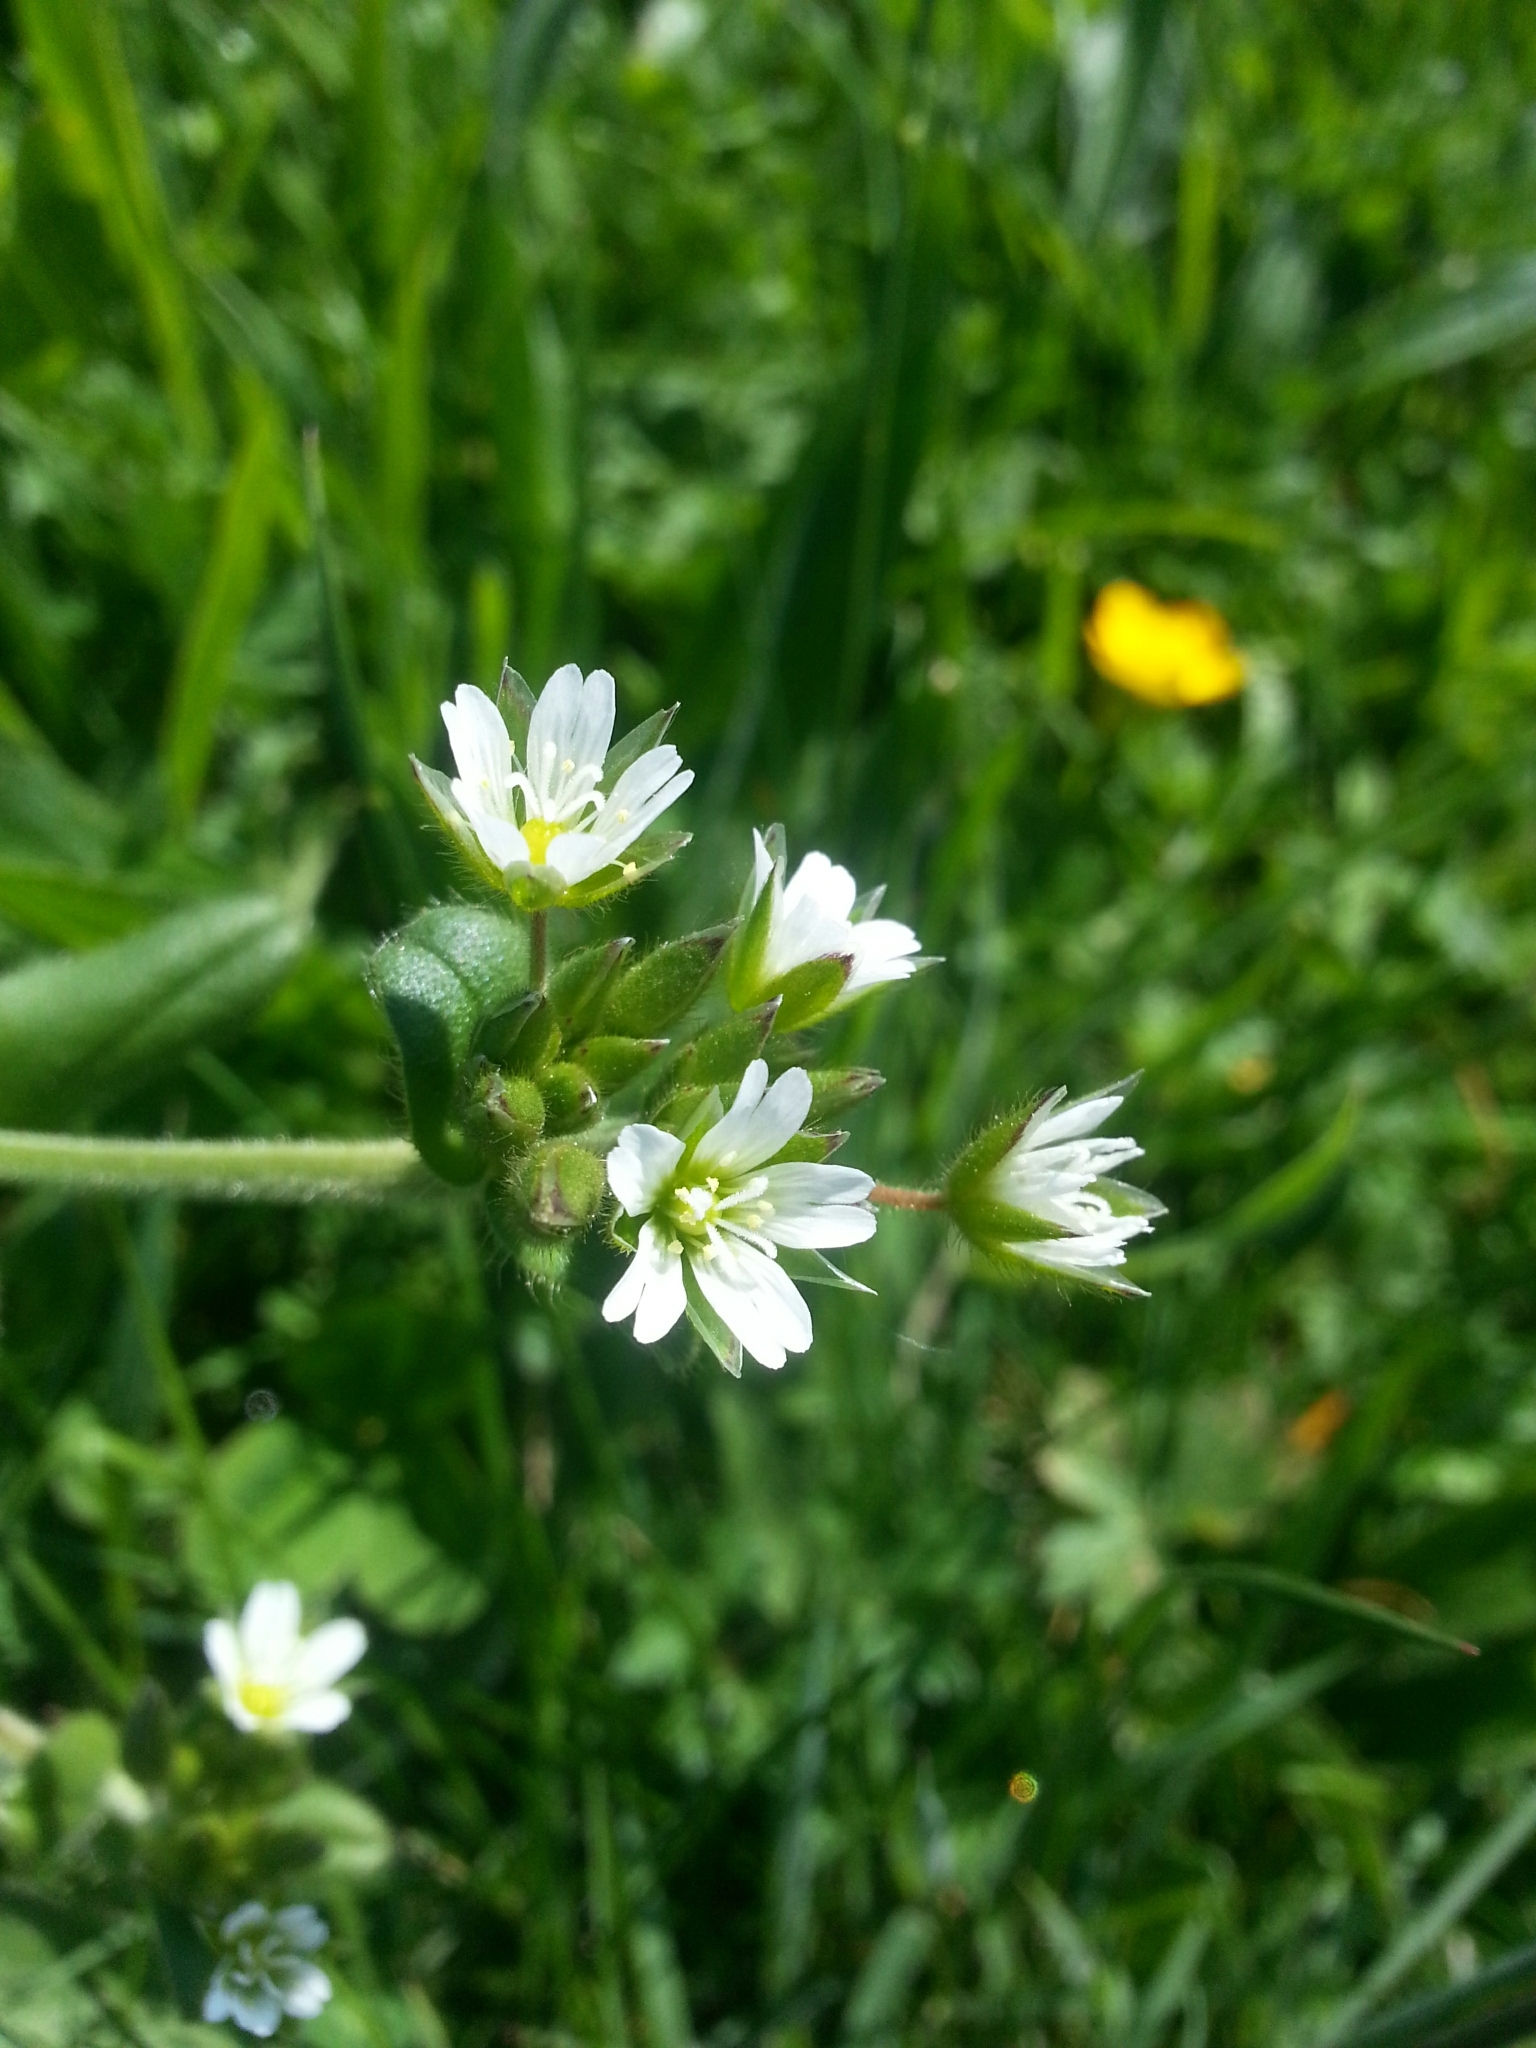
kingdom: Plantae
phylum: Tracheophyta
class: Magnoliopsida
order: Caryophyllales
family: Caryophyllaceae
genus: Cerastium
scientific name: Cerastium fontanum
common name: Common mouse-ear
